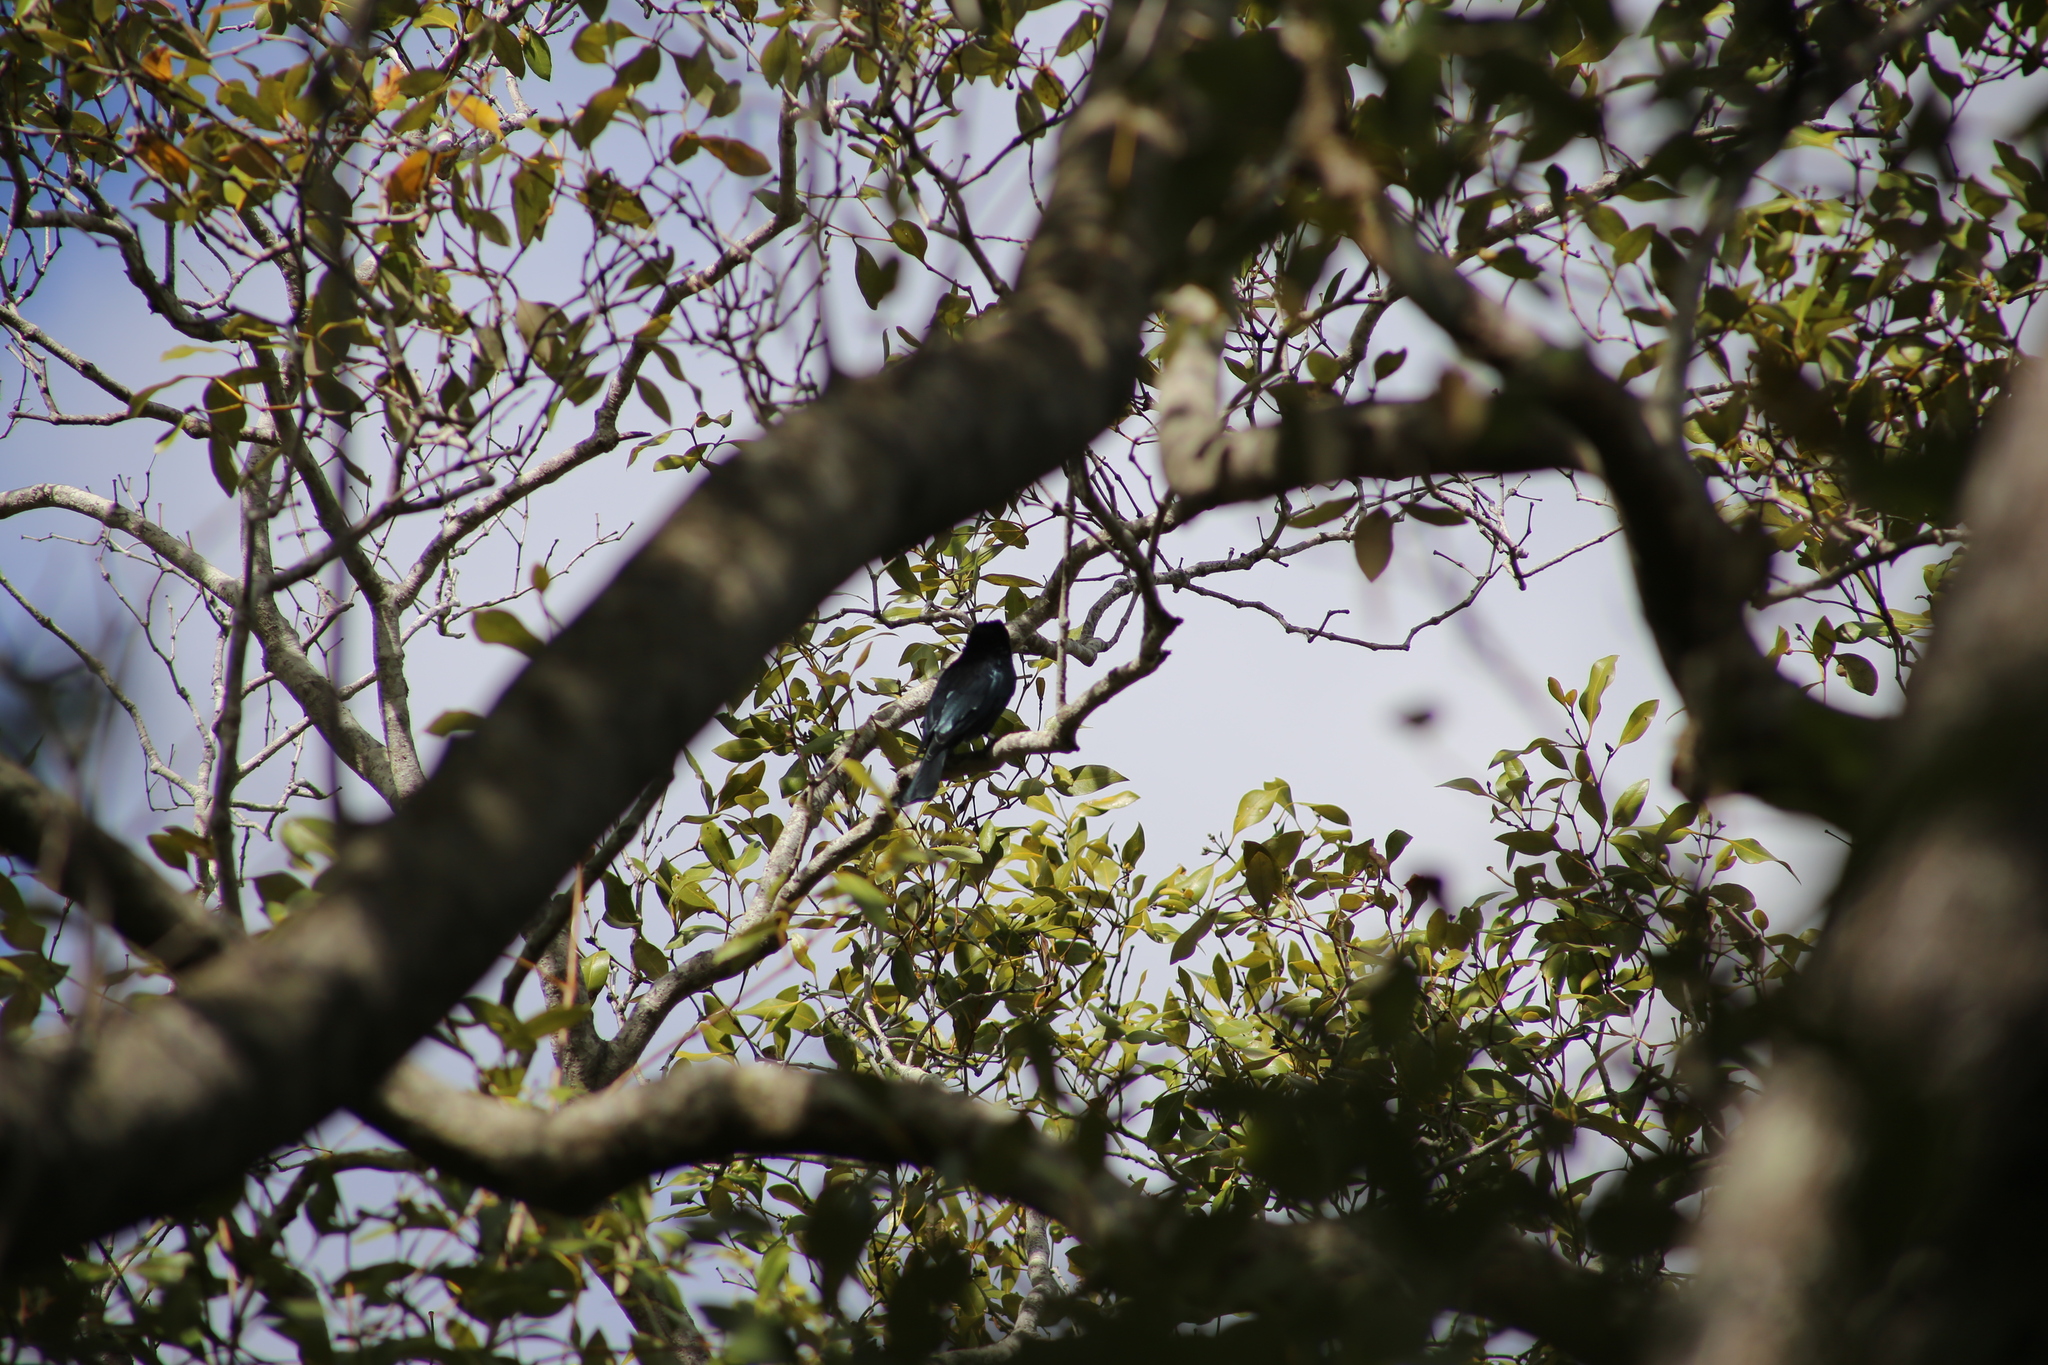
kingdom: Animalia
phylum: Chordata
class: Aves
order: Passeriformes
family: Dicruridae
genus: Dicrurus
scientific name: Dicrurus bracteatus
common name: Spangled drongo
